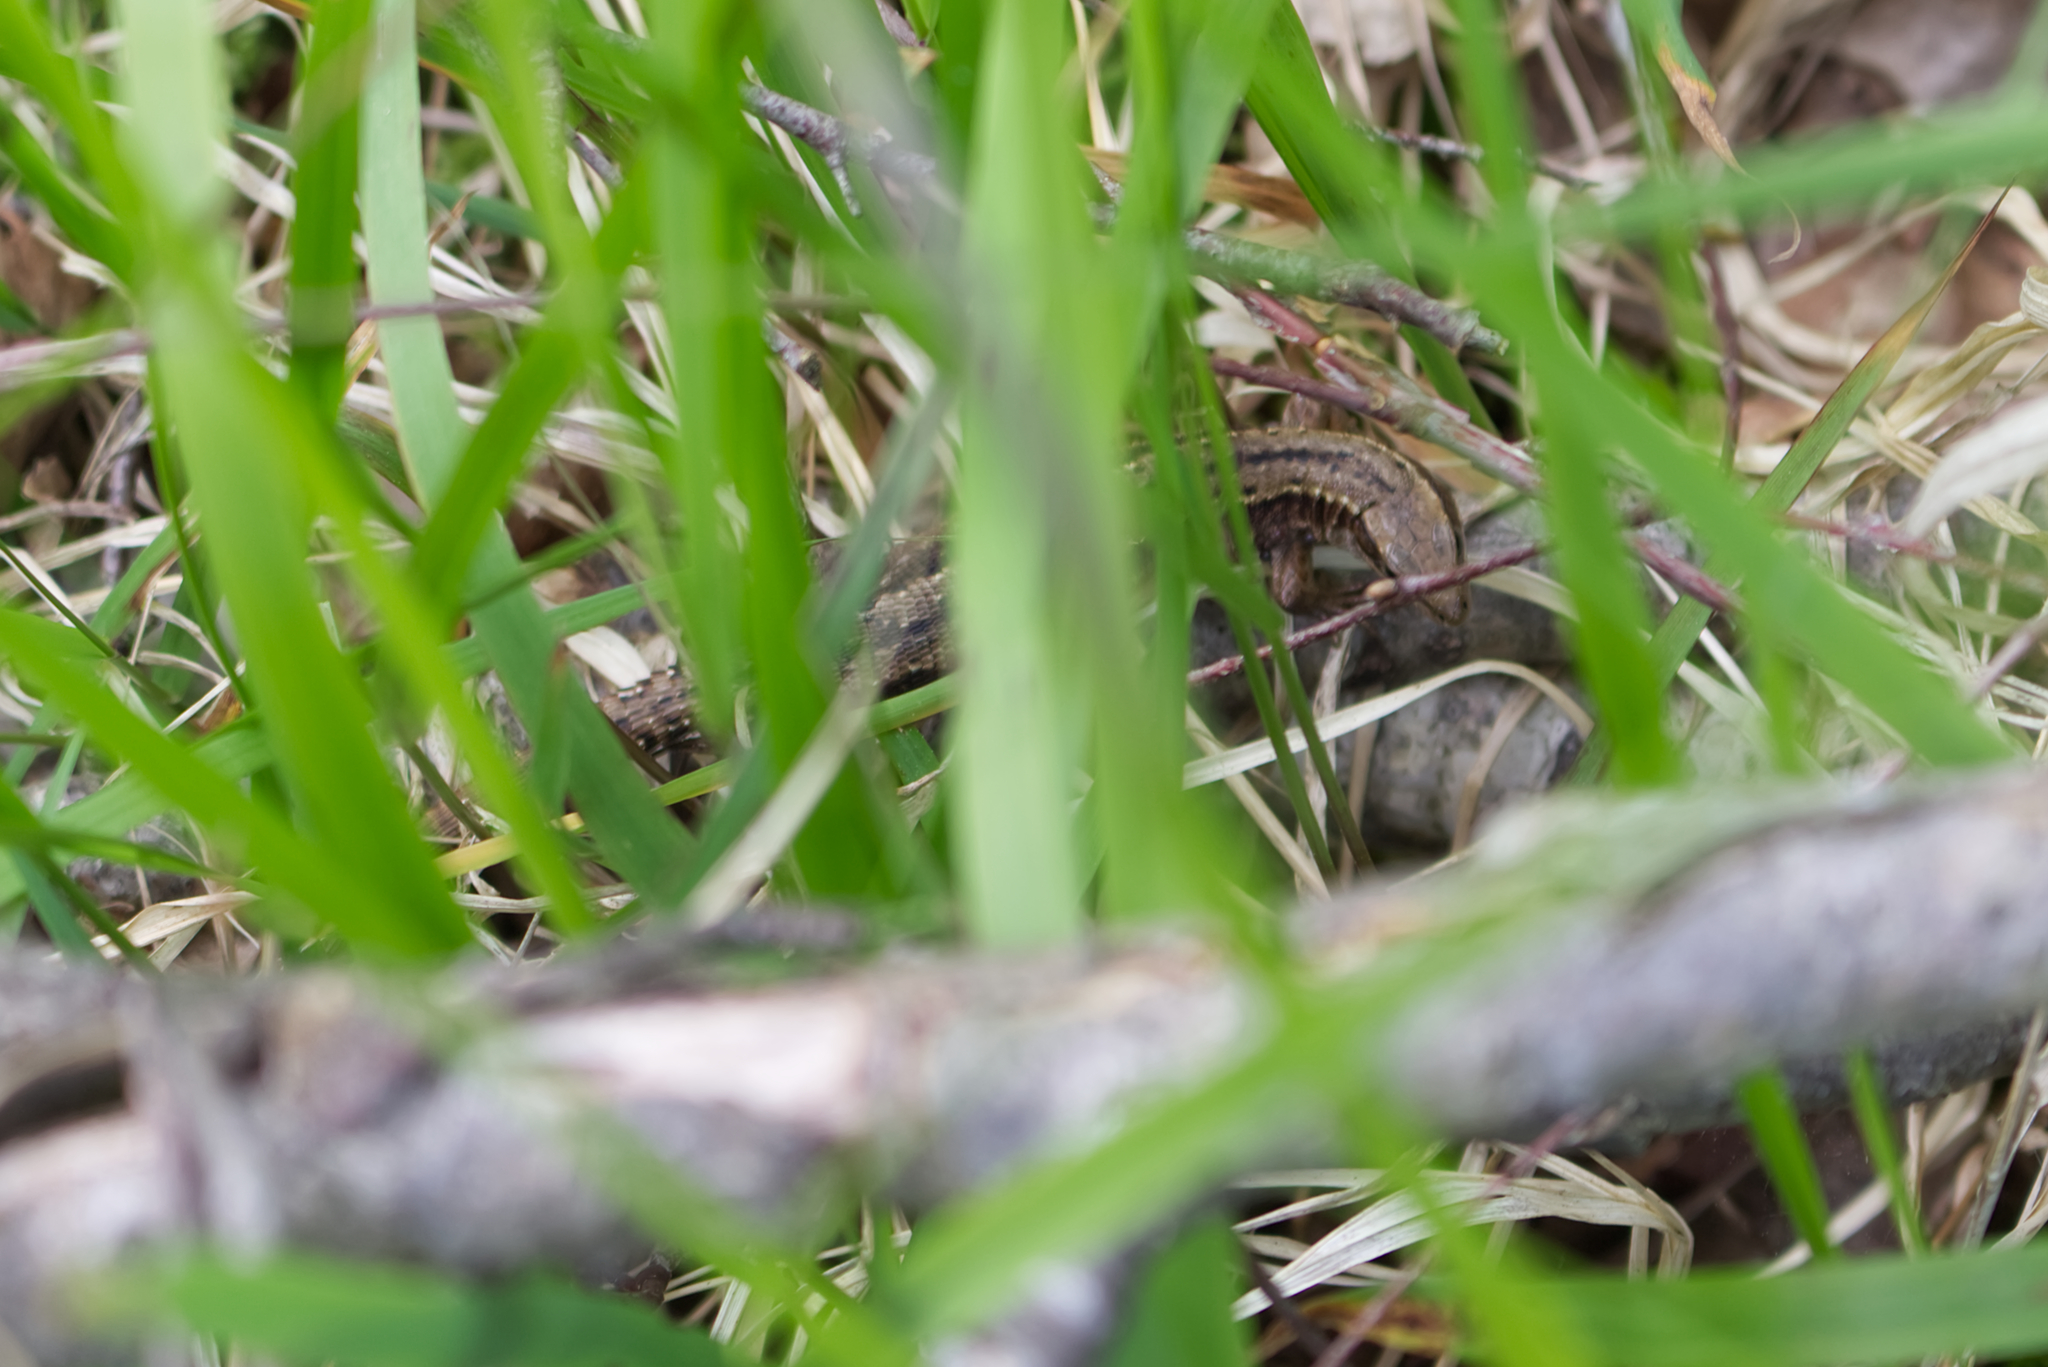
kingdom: Animalia
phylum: Chordata
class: Squamata
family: Lacertidae
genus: Zootoca
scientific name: Zootoca vivipara
